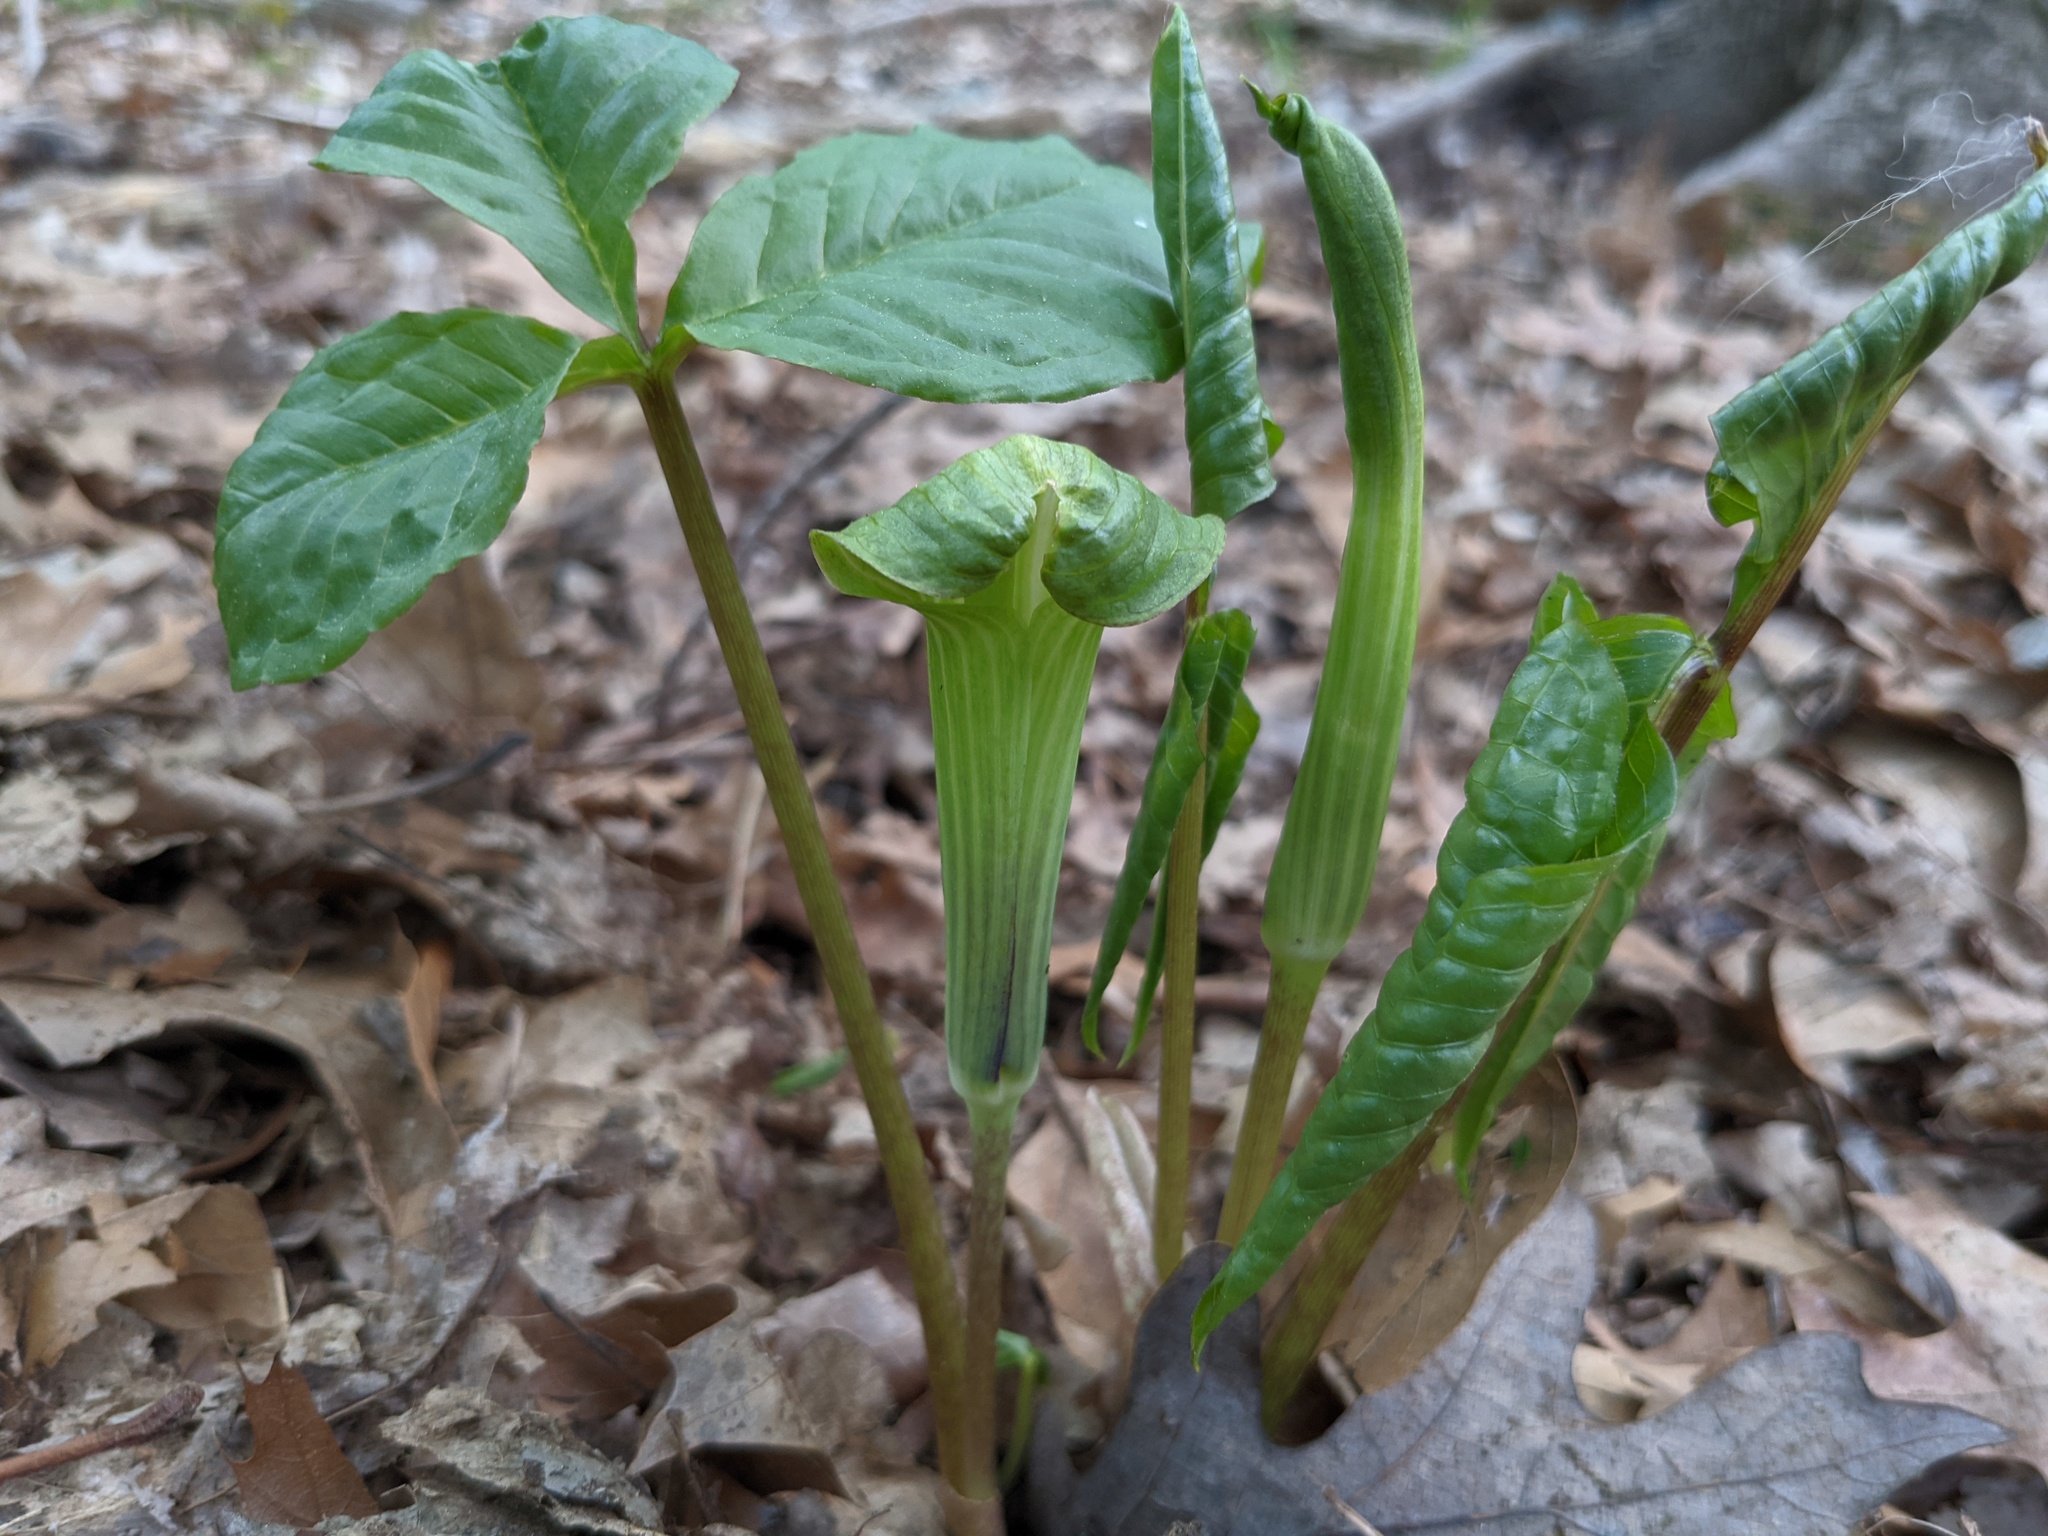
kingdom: Plantae
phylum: Tracheophyta
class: Liliopsida
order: Alismatales
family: Araceae
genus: Arisaema
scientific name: Arisaema triphyllum
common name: Jack-in-the-pulpit
